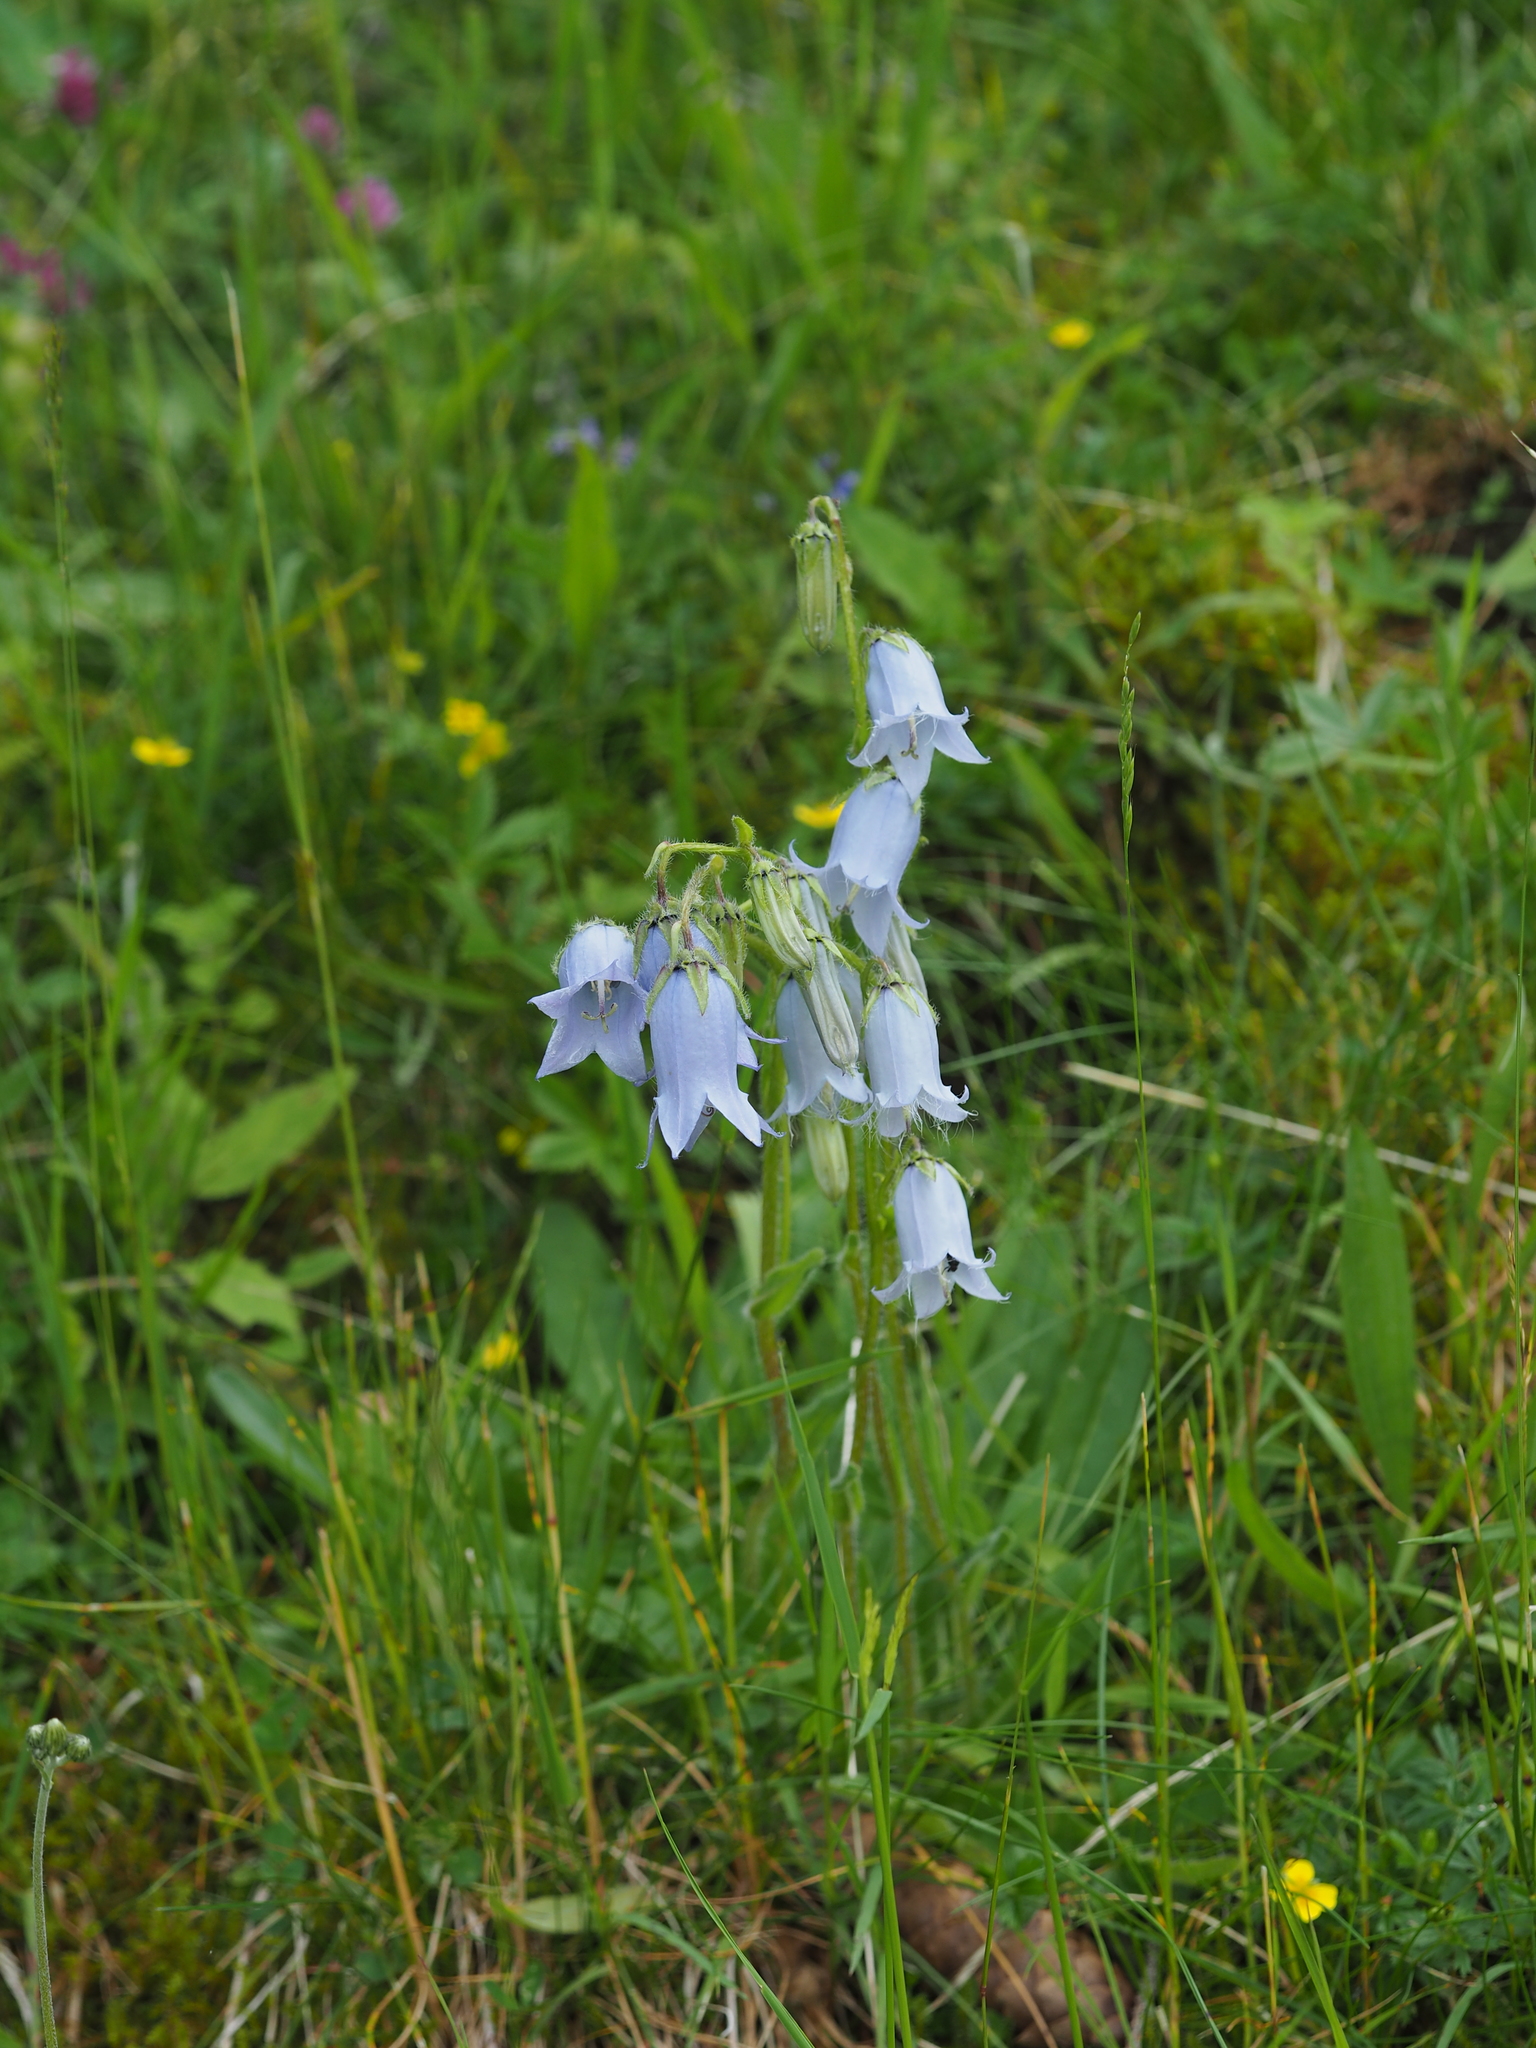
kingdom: Plantae
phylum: Tracheophyta
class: Magnoliopsida
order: Asterales
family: Campanulaceae
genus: Campanula
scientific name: Campanula barbata
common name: Bearded bellflower
